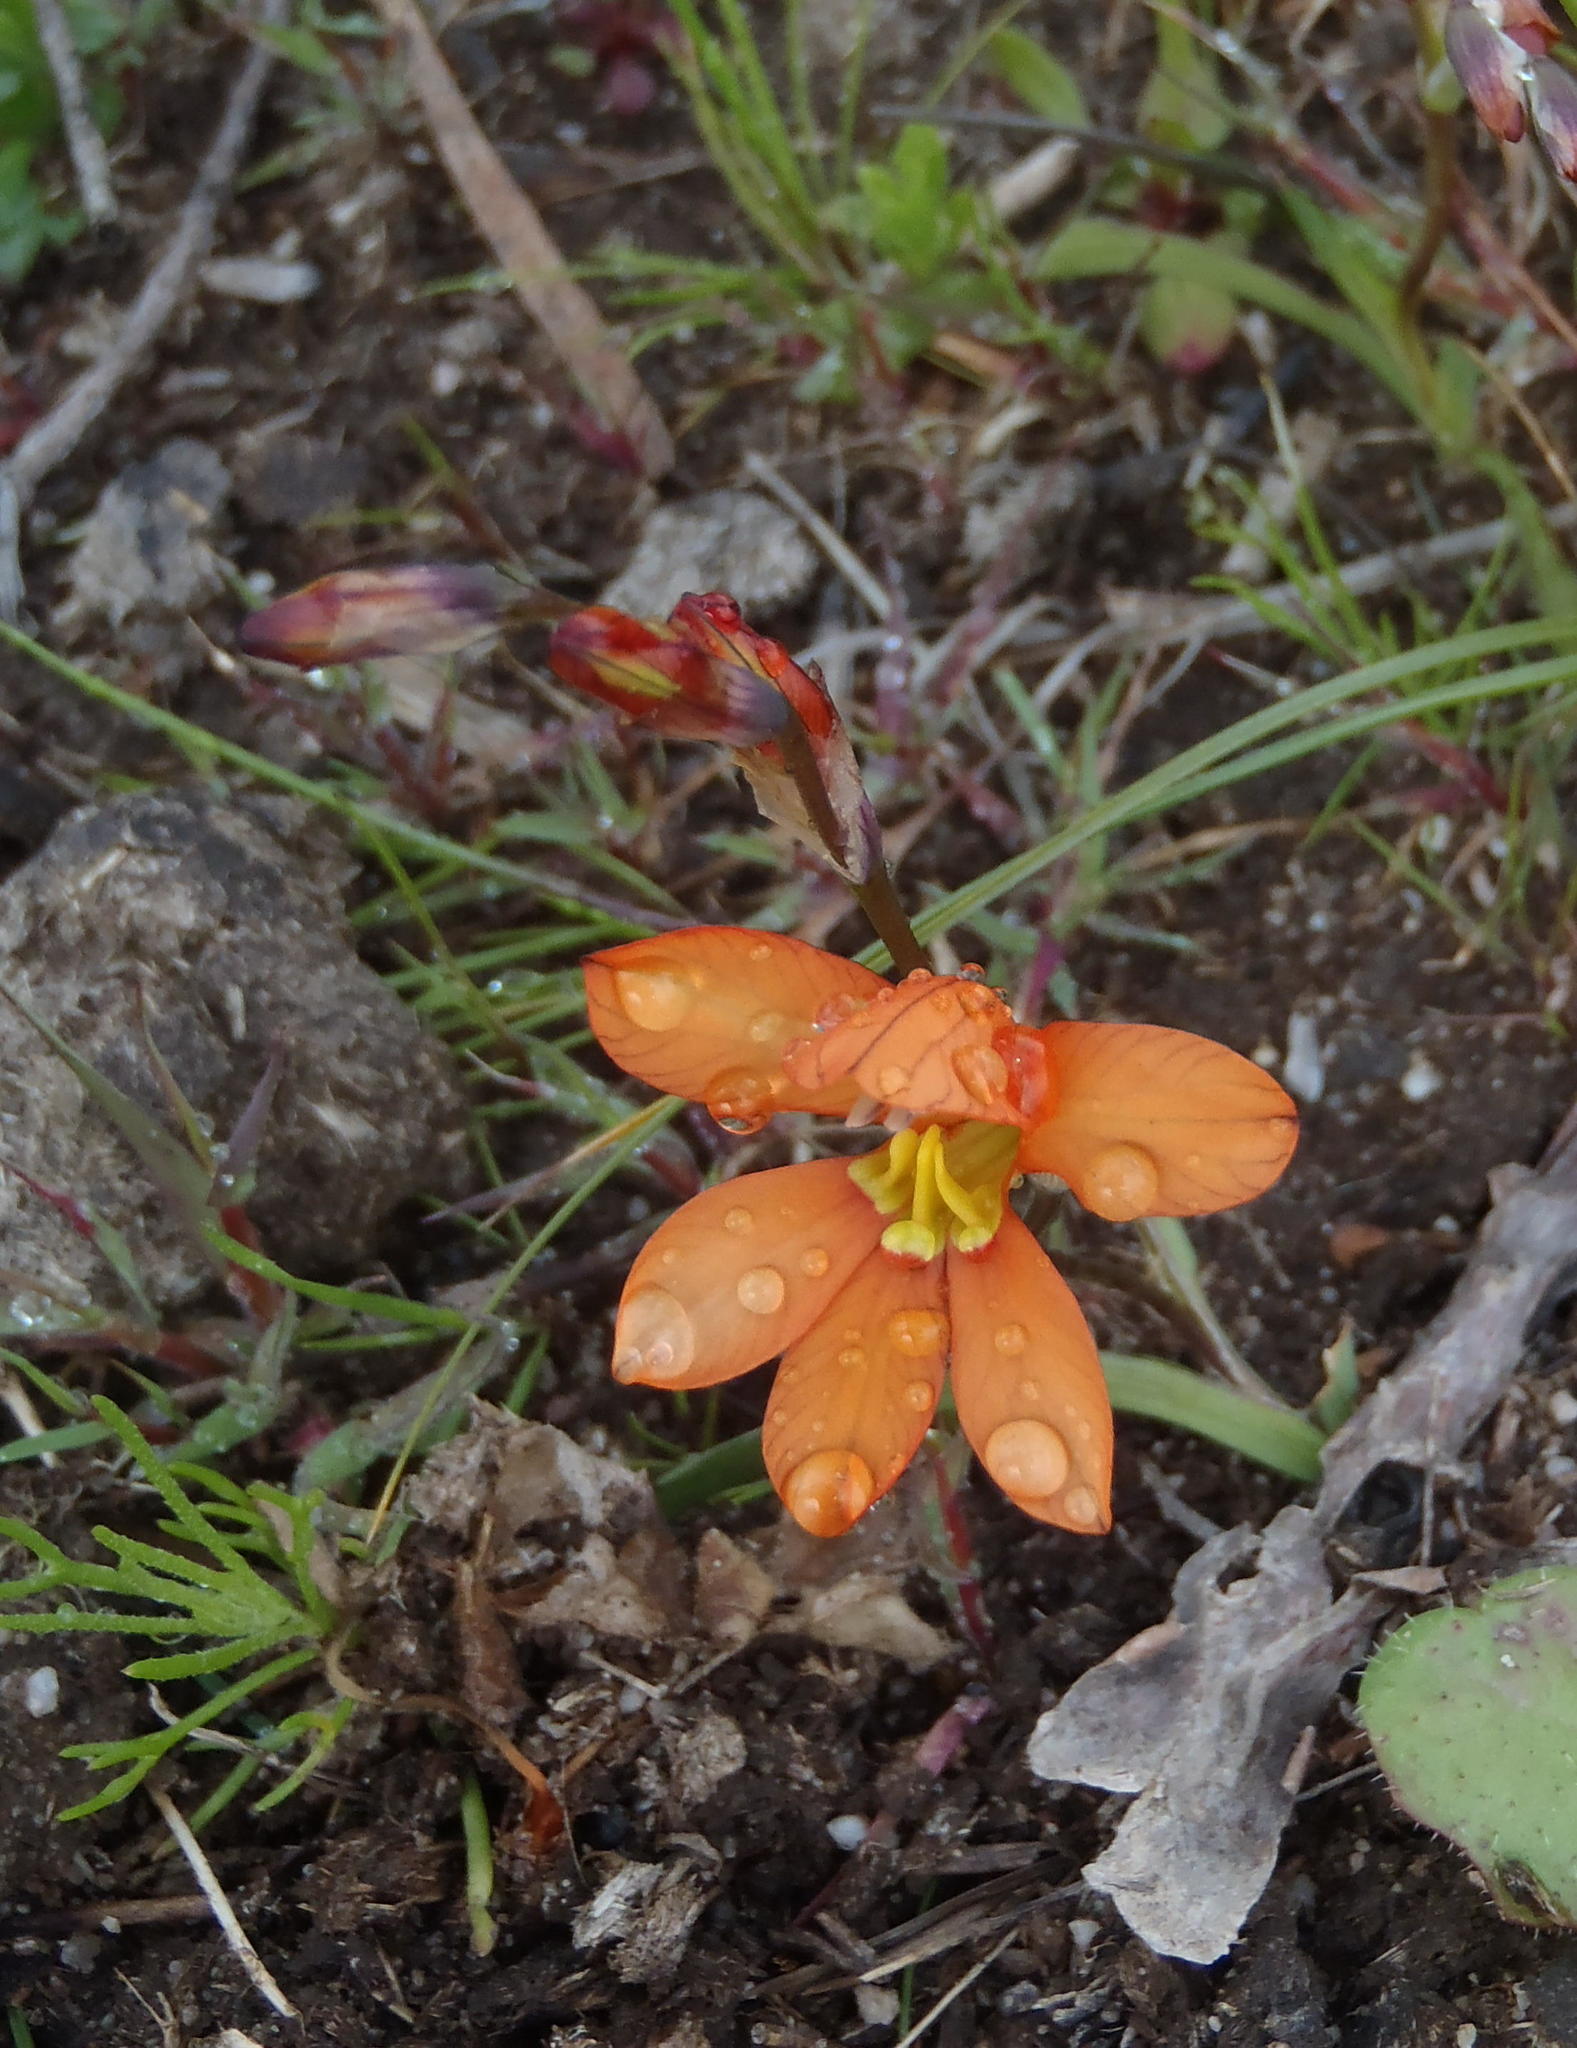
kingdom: Plantae
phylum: Tracheophyta
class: Liliopsida
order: Asparagales
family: Iridaceae
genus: Tritonia
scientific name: Tritonia securigera
